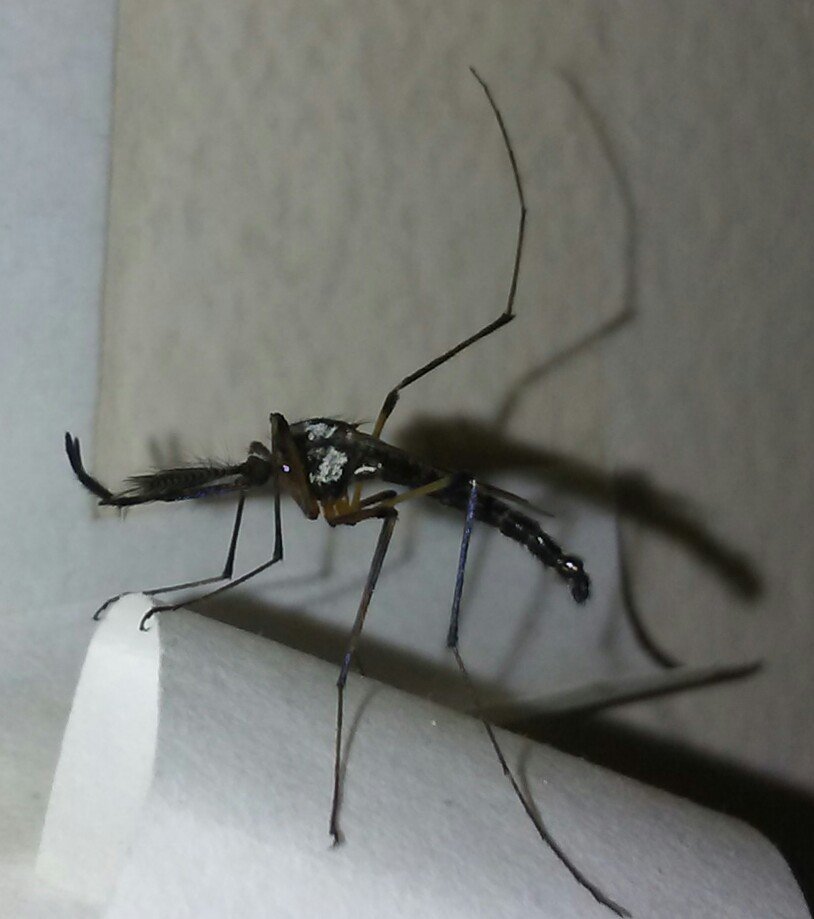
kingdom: Animalia
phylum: Arthropoda
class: Insecta
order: Diptera
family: Culicidae
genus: Psorophora
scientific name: Psorophora howardii
